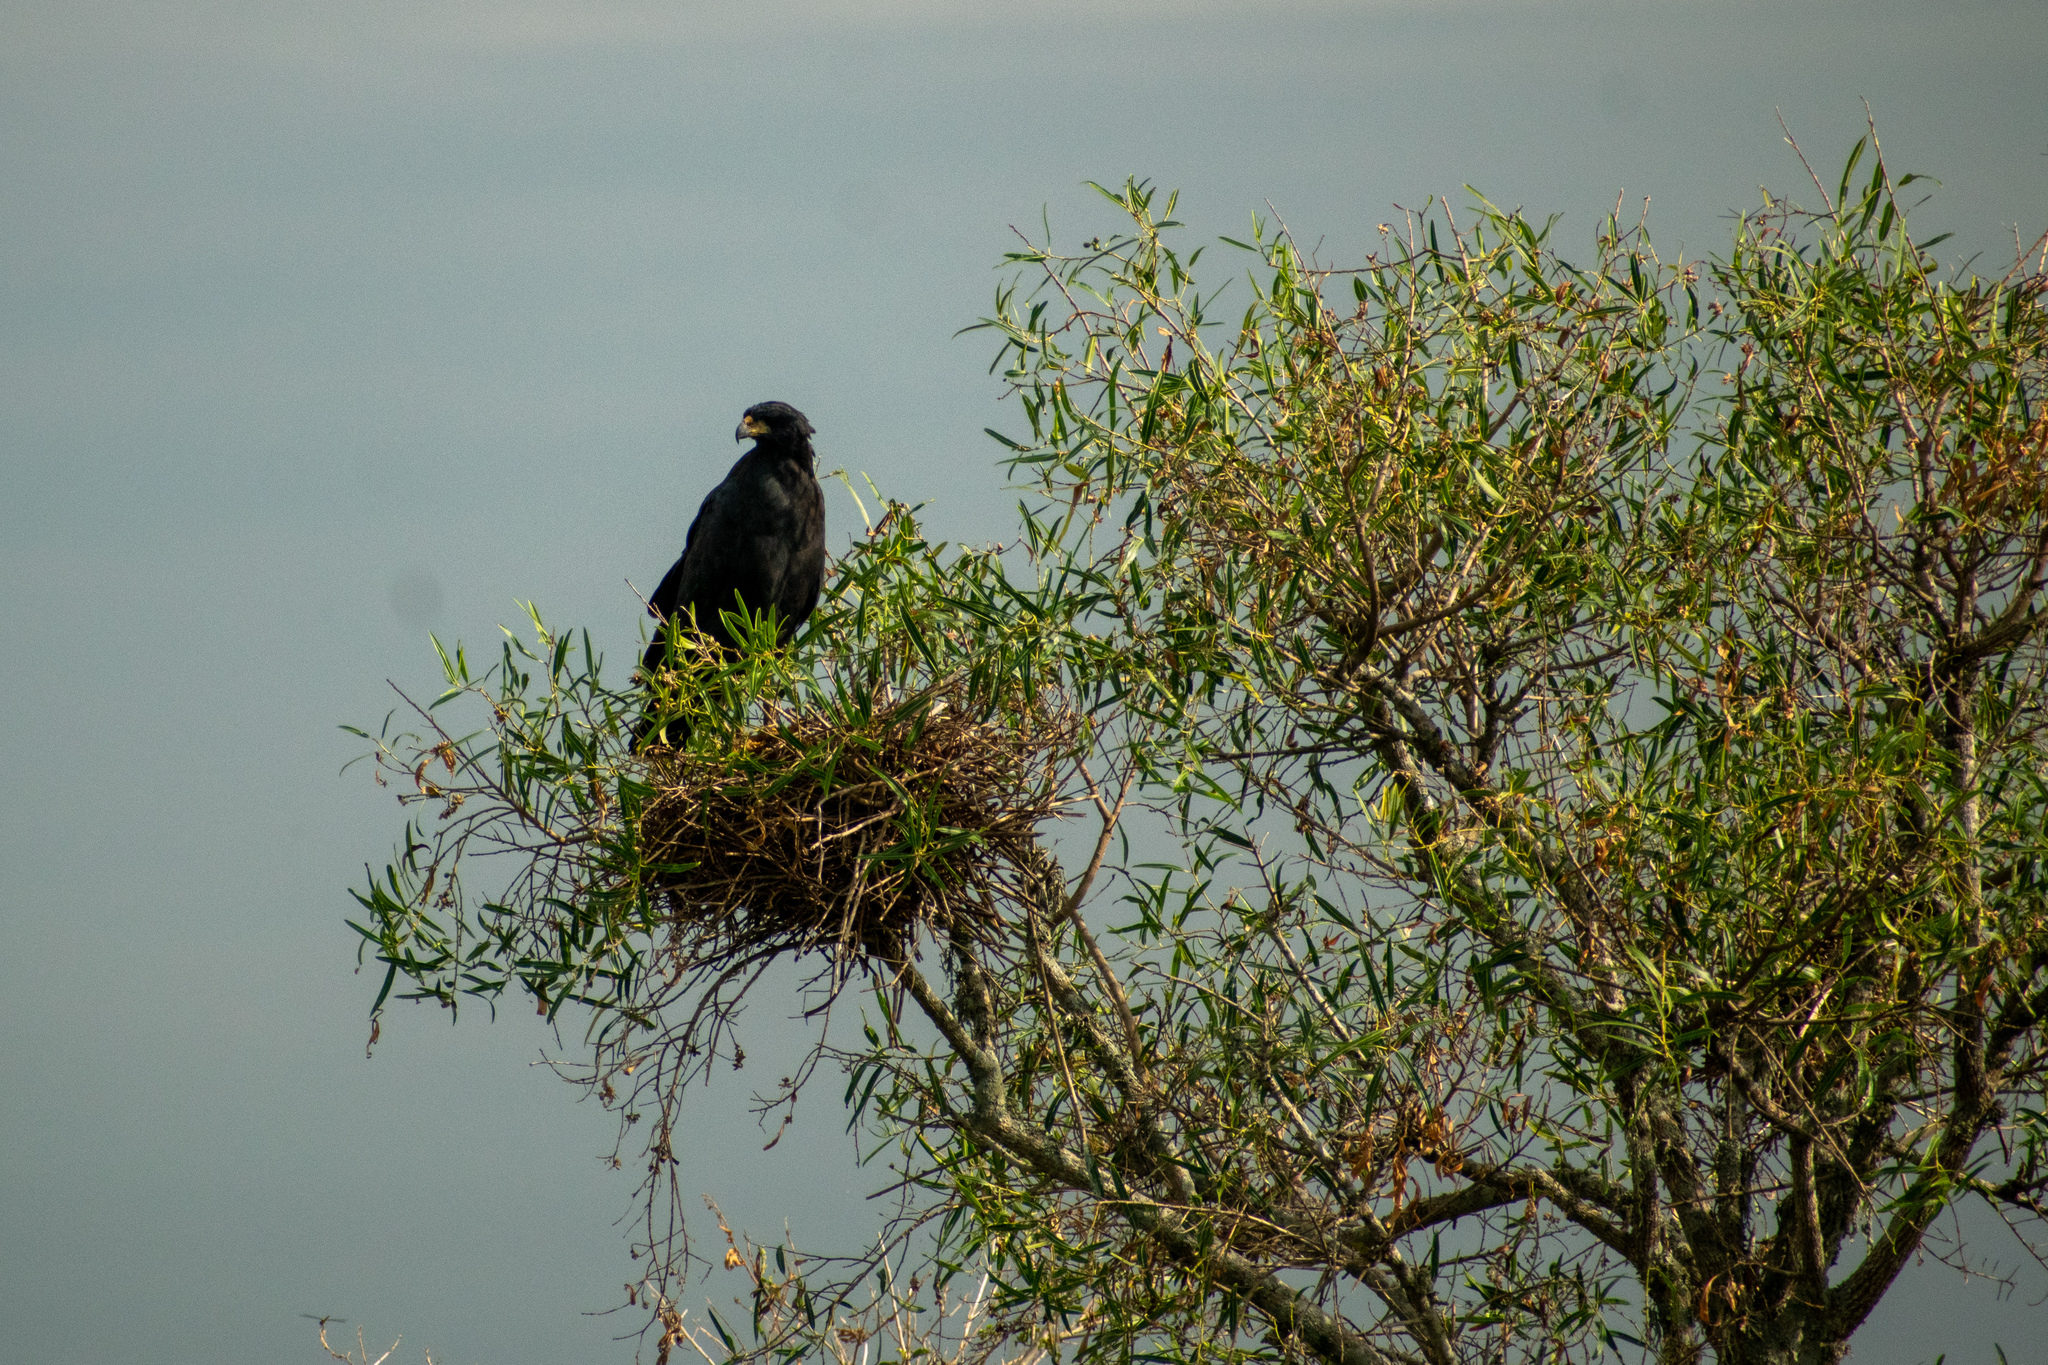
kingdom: Animalia
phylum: Chordata
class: Aves
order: Accipitriformes
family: Accipitridae
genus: Buteogallus
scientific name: Buteogallus urubitinga
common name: Great black hawk
